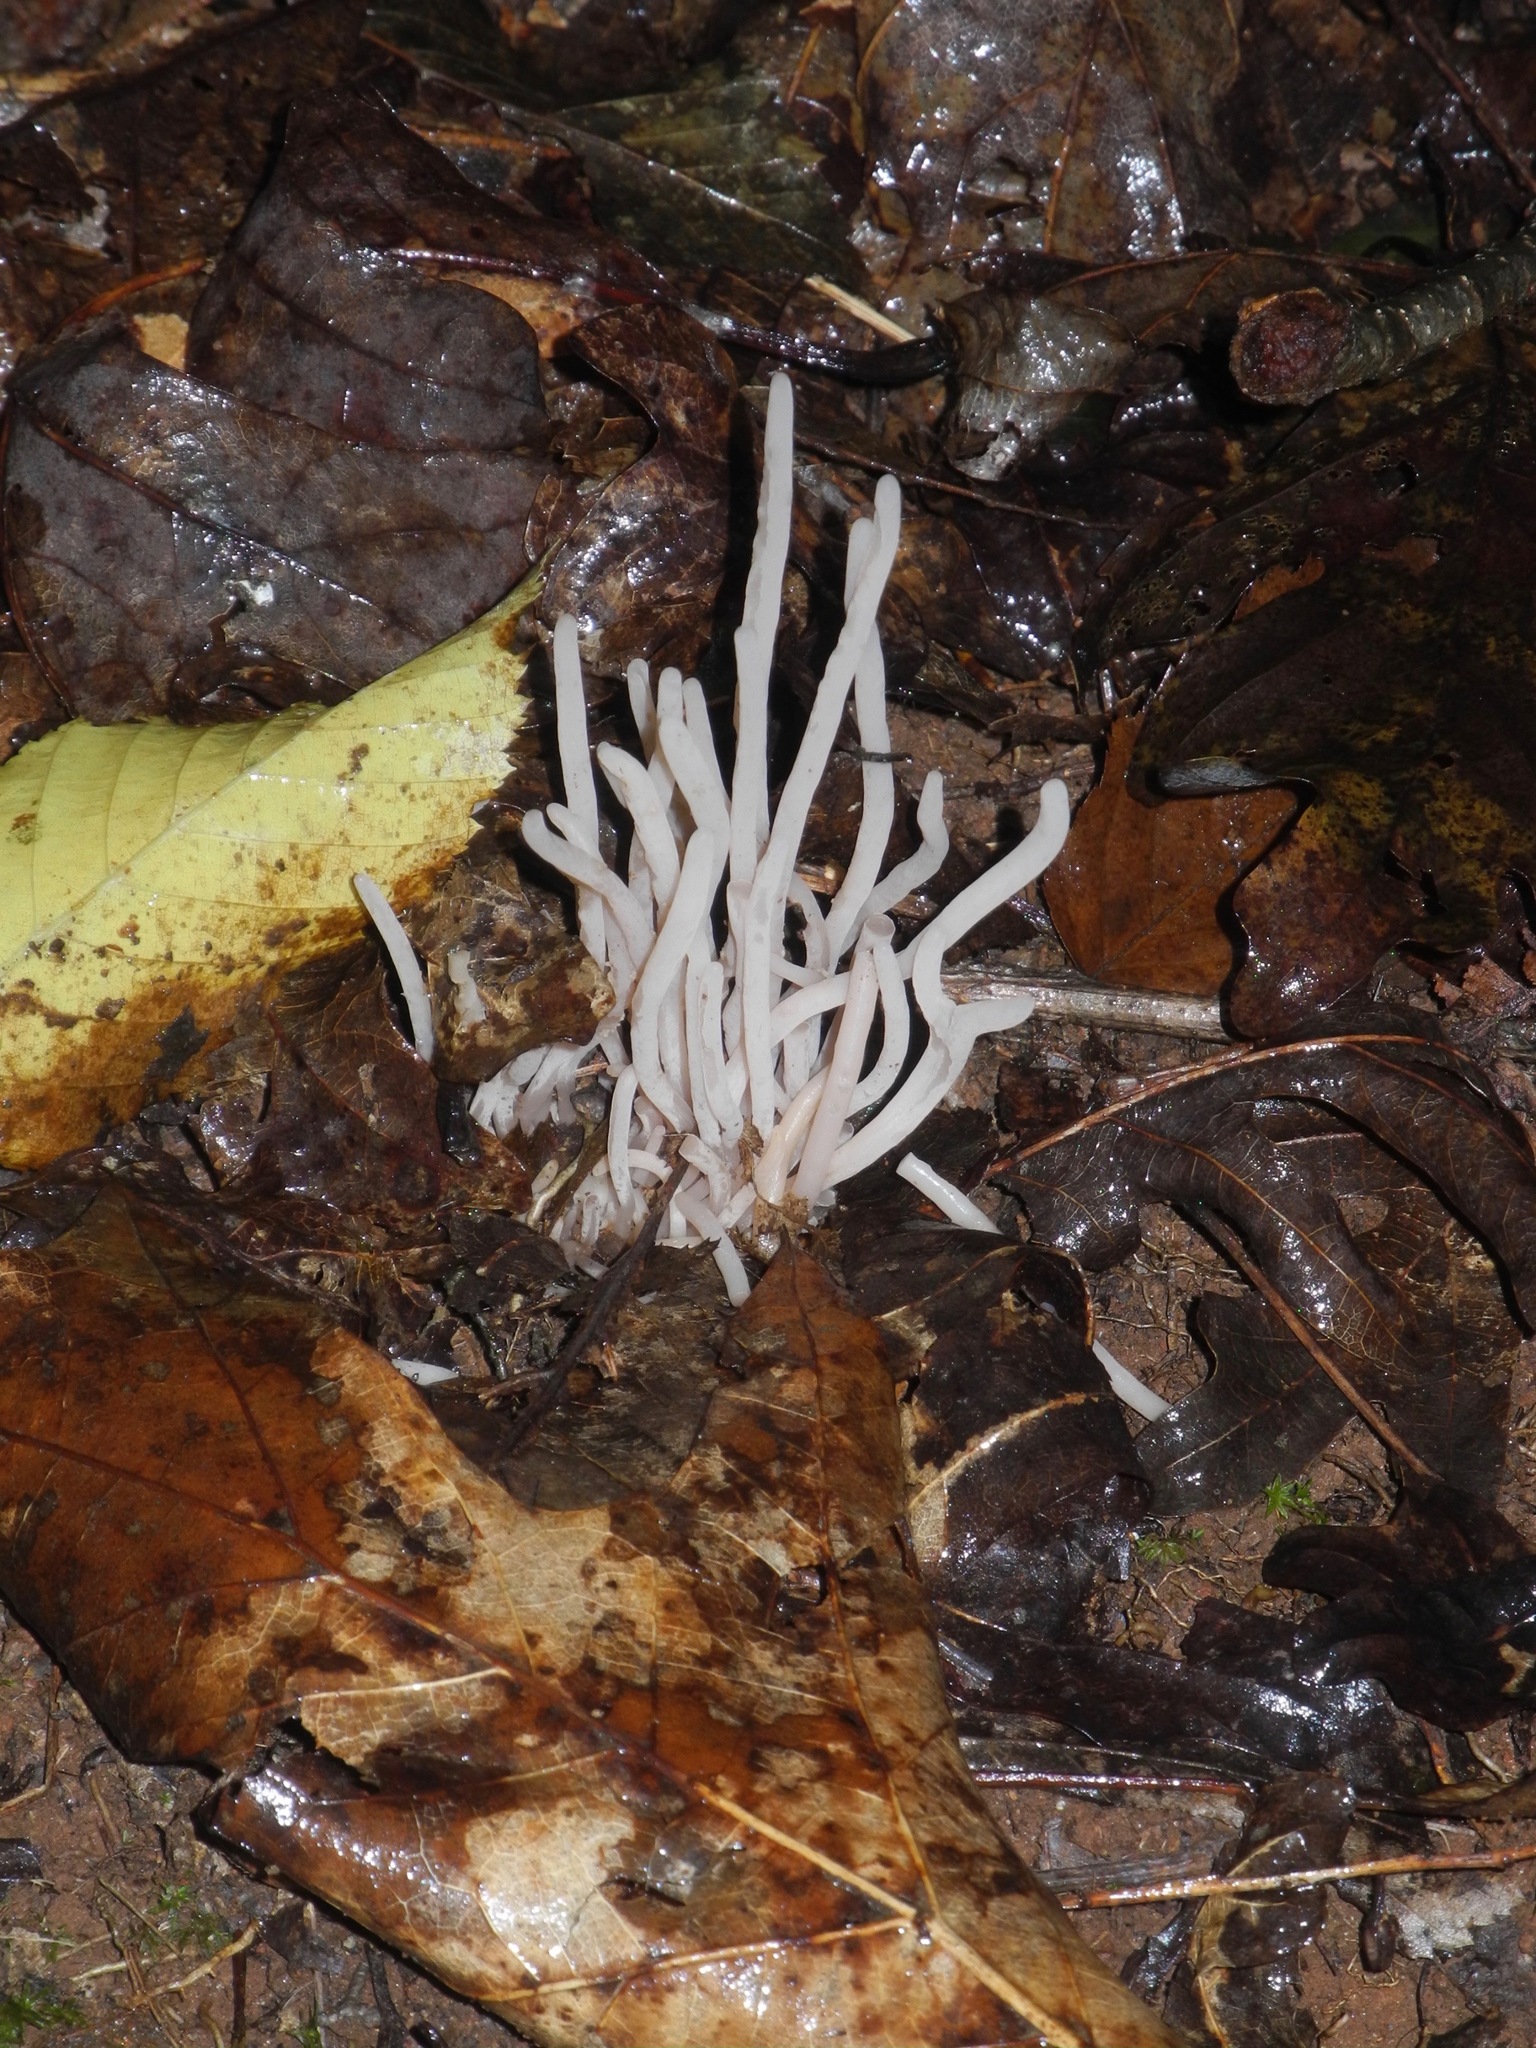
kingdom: Fungi
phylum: Basidiomycota
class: Agaricomycetes
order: Agaricales
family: Clavariaceae
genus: Clavaria
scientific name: Clavaria fragilis
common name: White spindles
